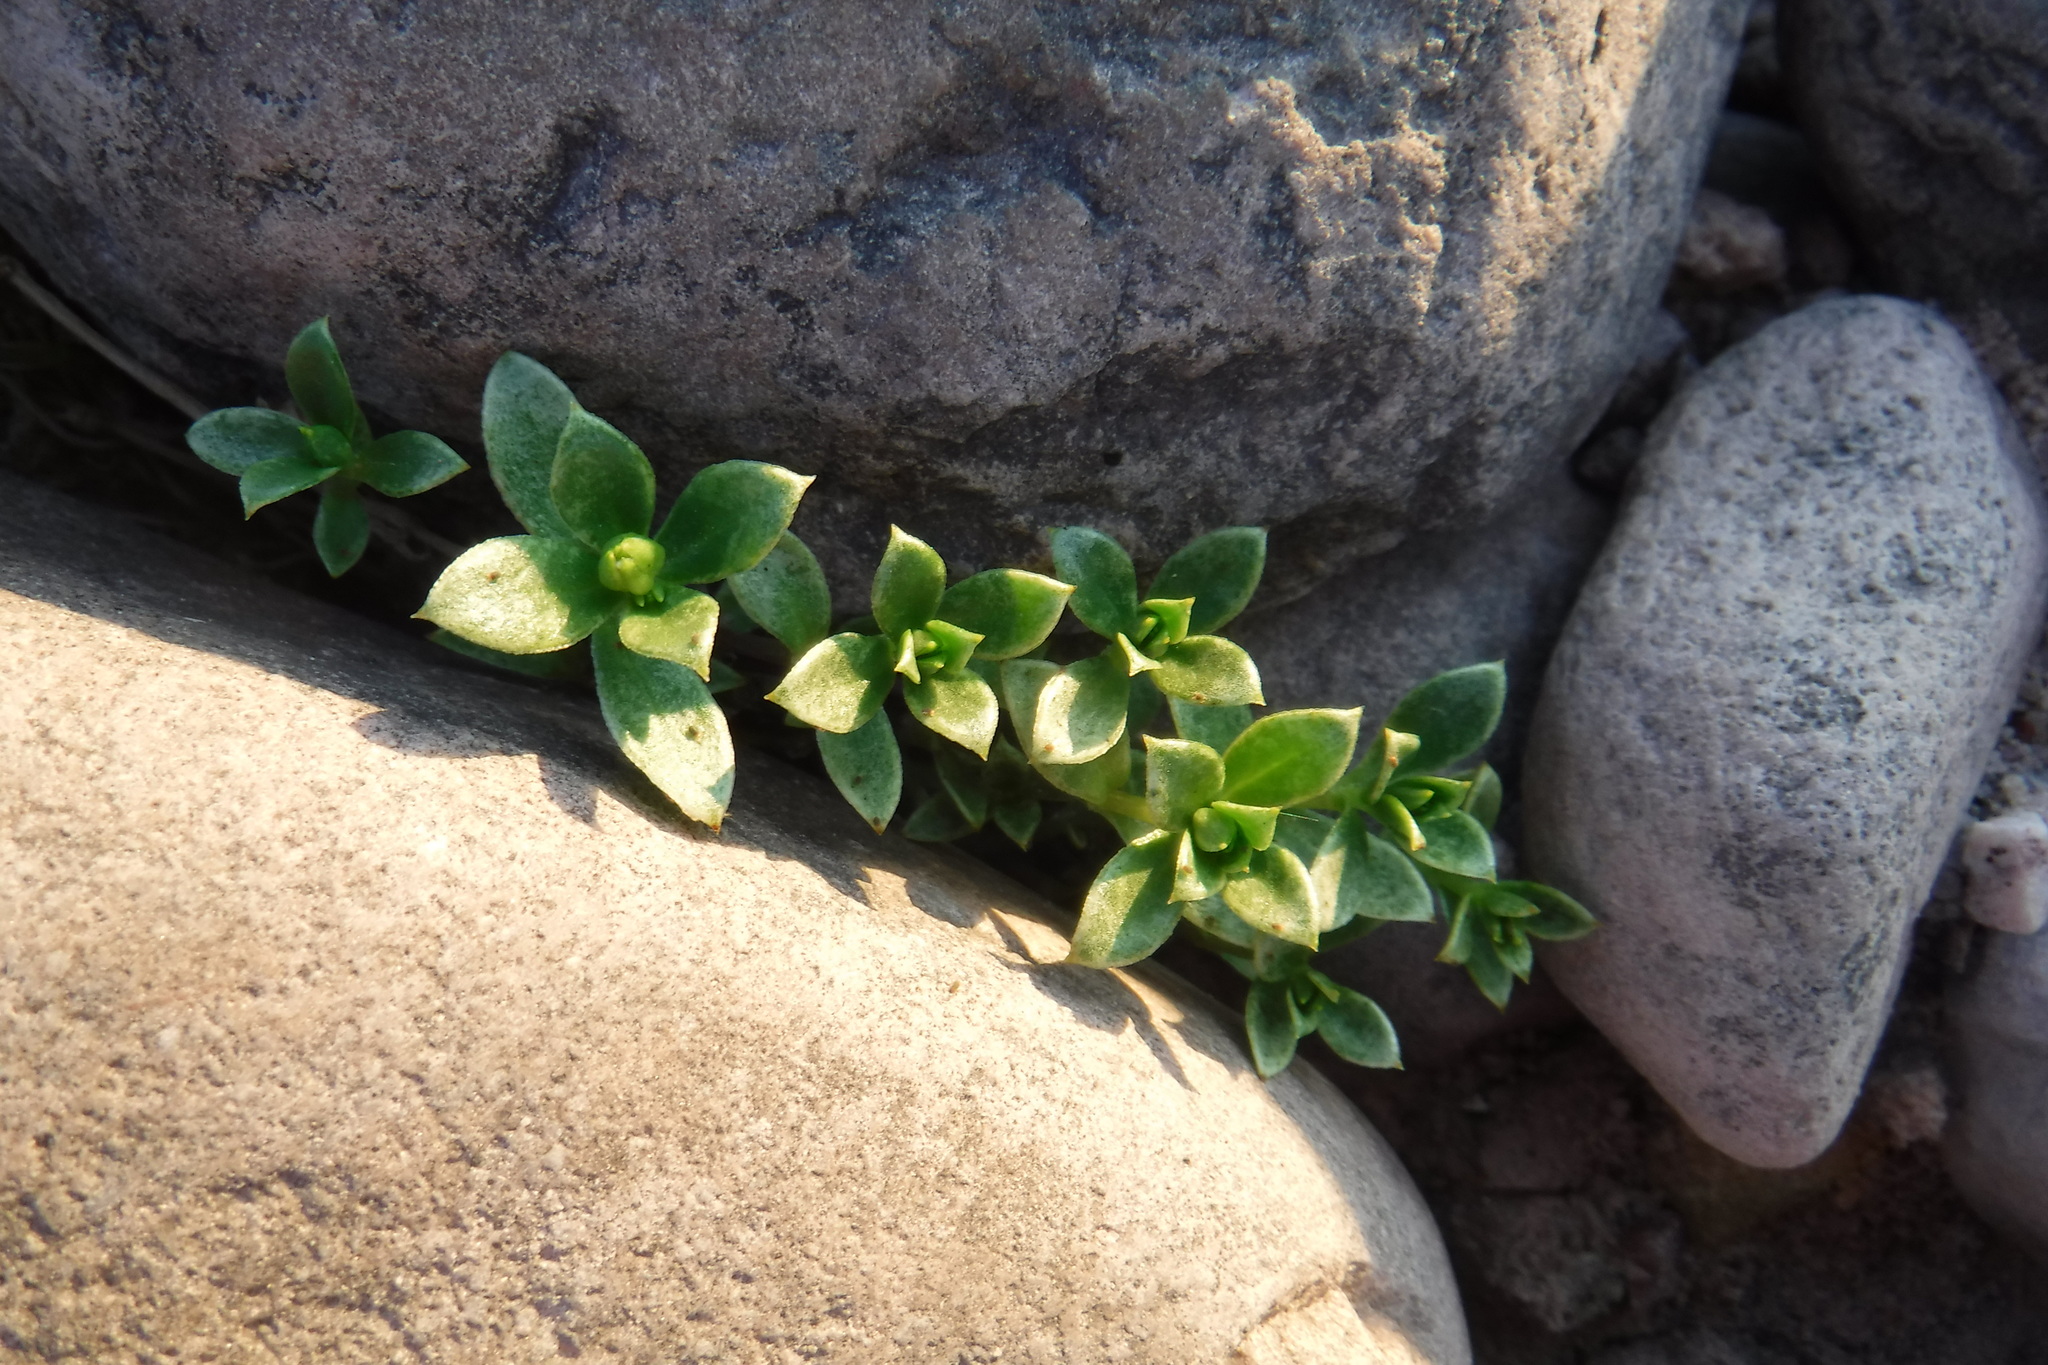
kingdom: Plantae
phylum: Tracheophyta
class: Magnoliopsida
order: Caryophyllales
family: Caryophyllaceae
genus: Honckenya
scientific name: Honckenya peploides
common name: Sea sandwort
